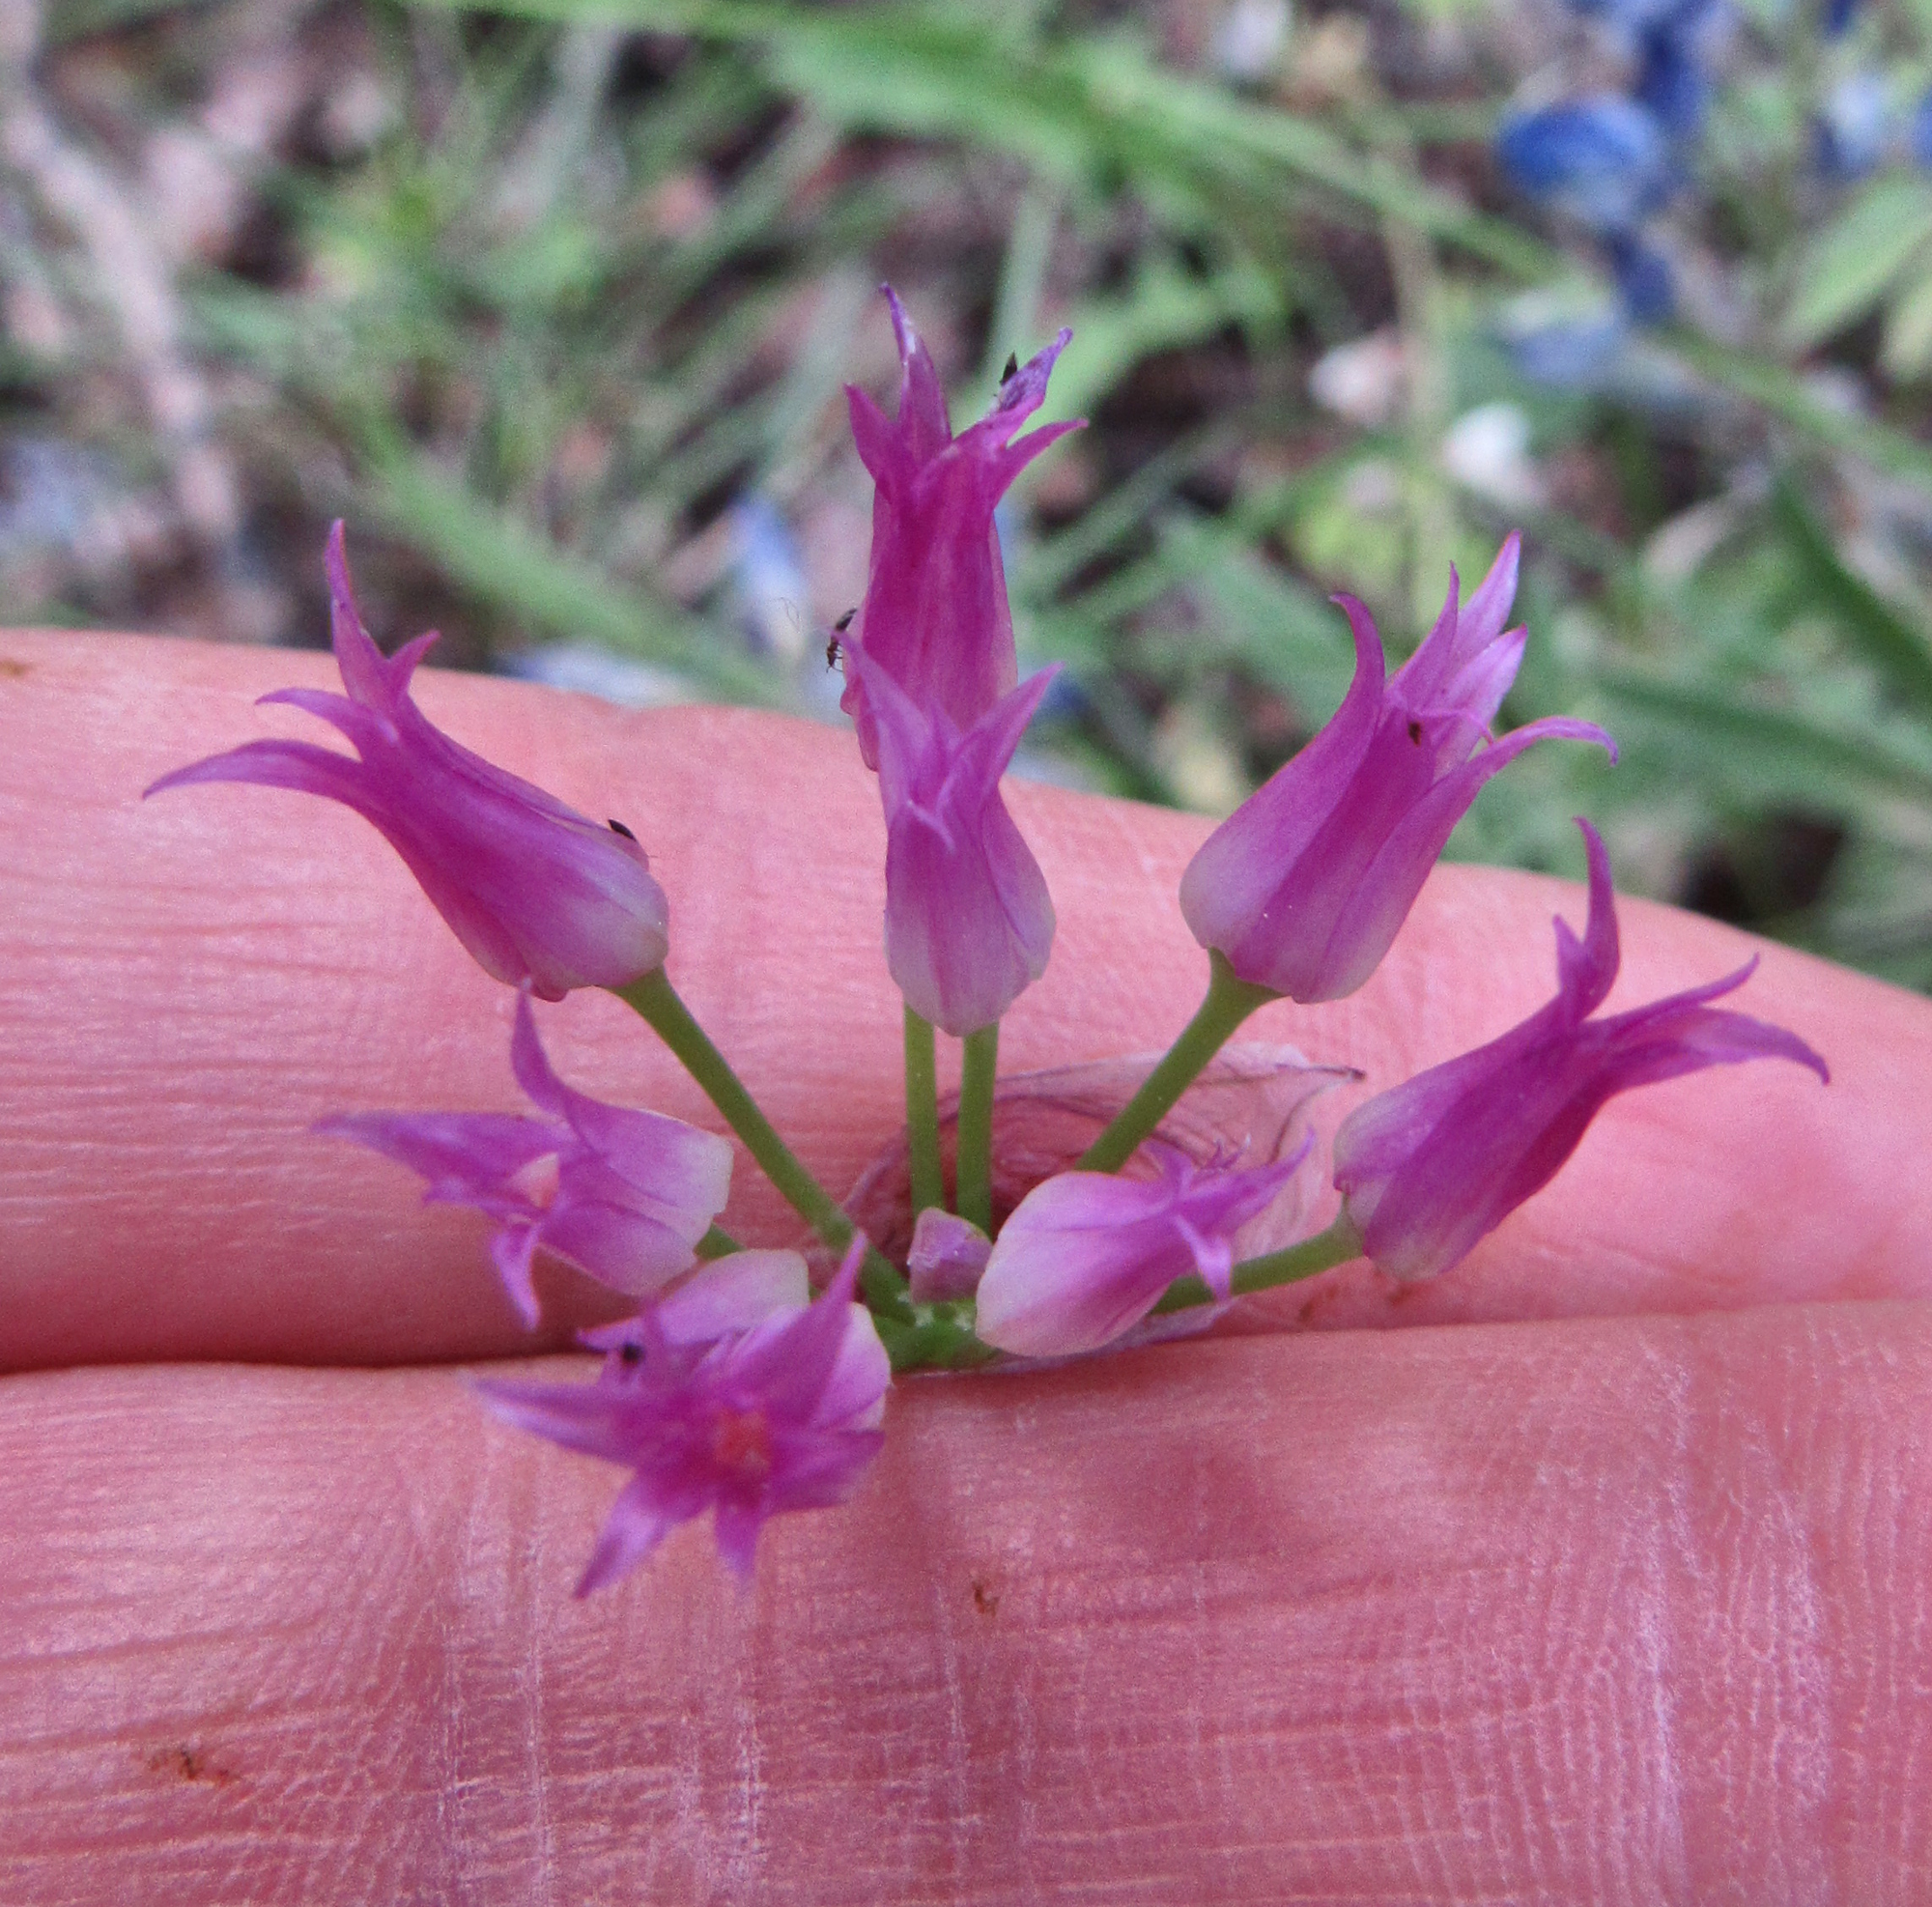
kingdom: Plantae
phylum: Tracheophyta
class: Liliopsida
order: Asparagales
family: Amaryllidaceae
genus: Allium
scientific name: Allium brevistylum
